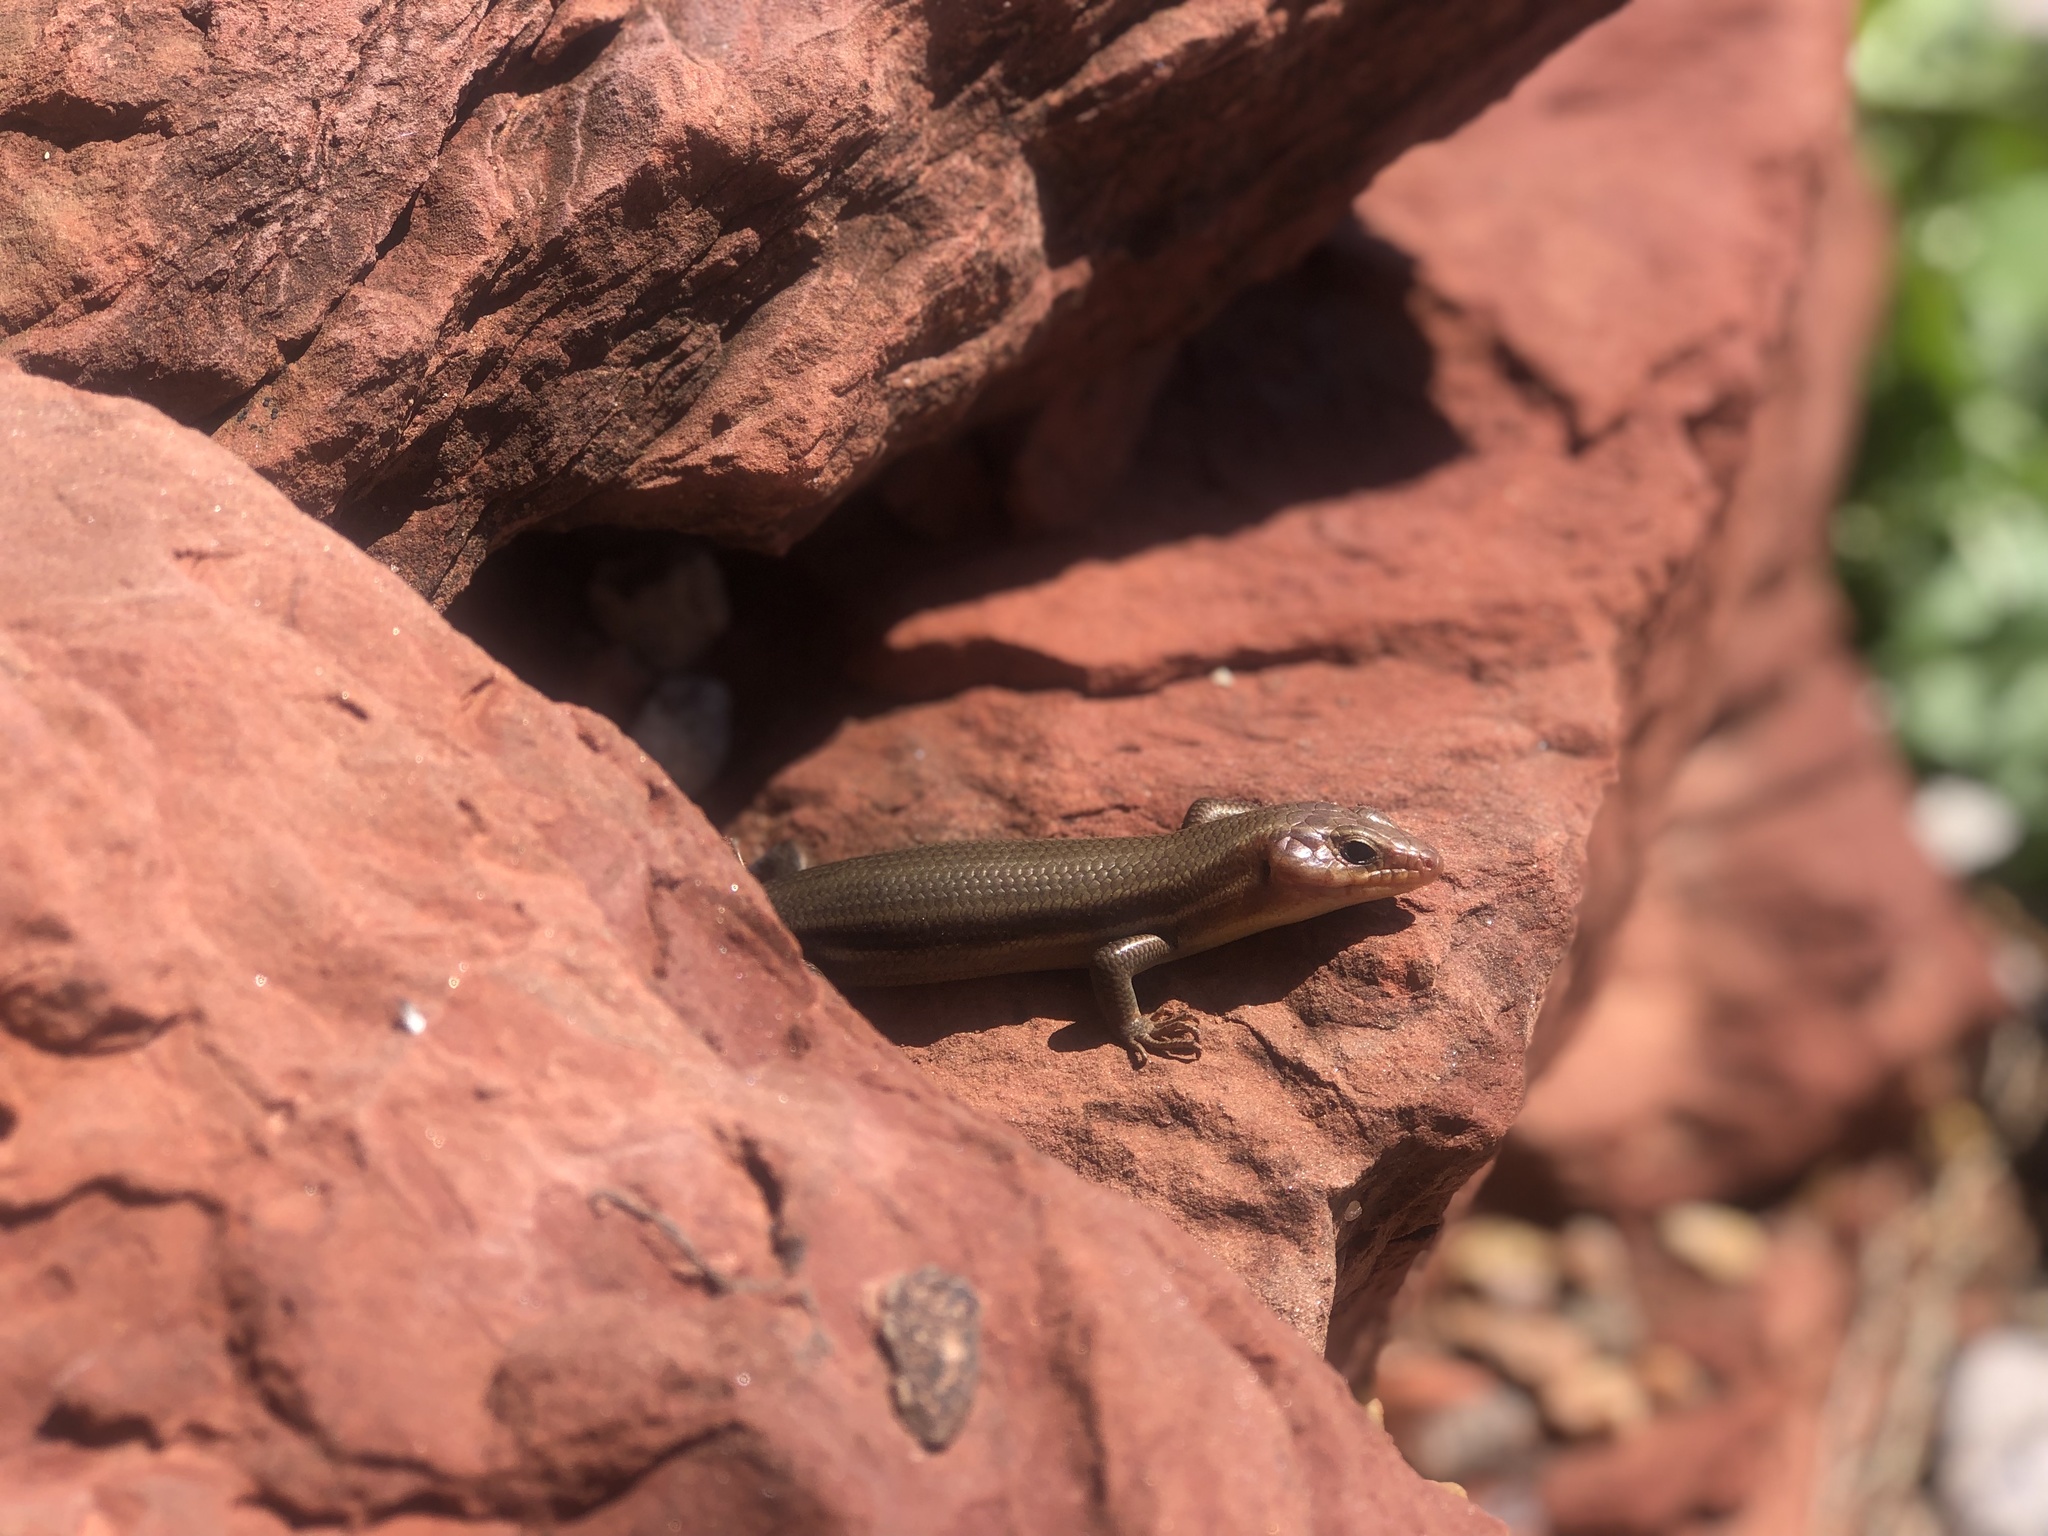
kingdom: Animalia
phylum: Chordata
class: Squamata
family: Scincidae
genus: Plestiodon
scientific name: Plestiodon fasciatus
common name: Five-lined skink
